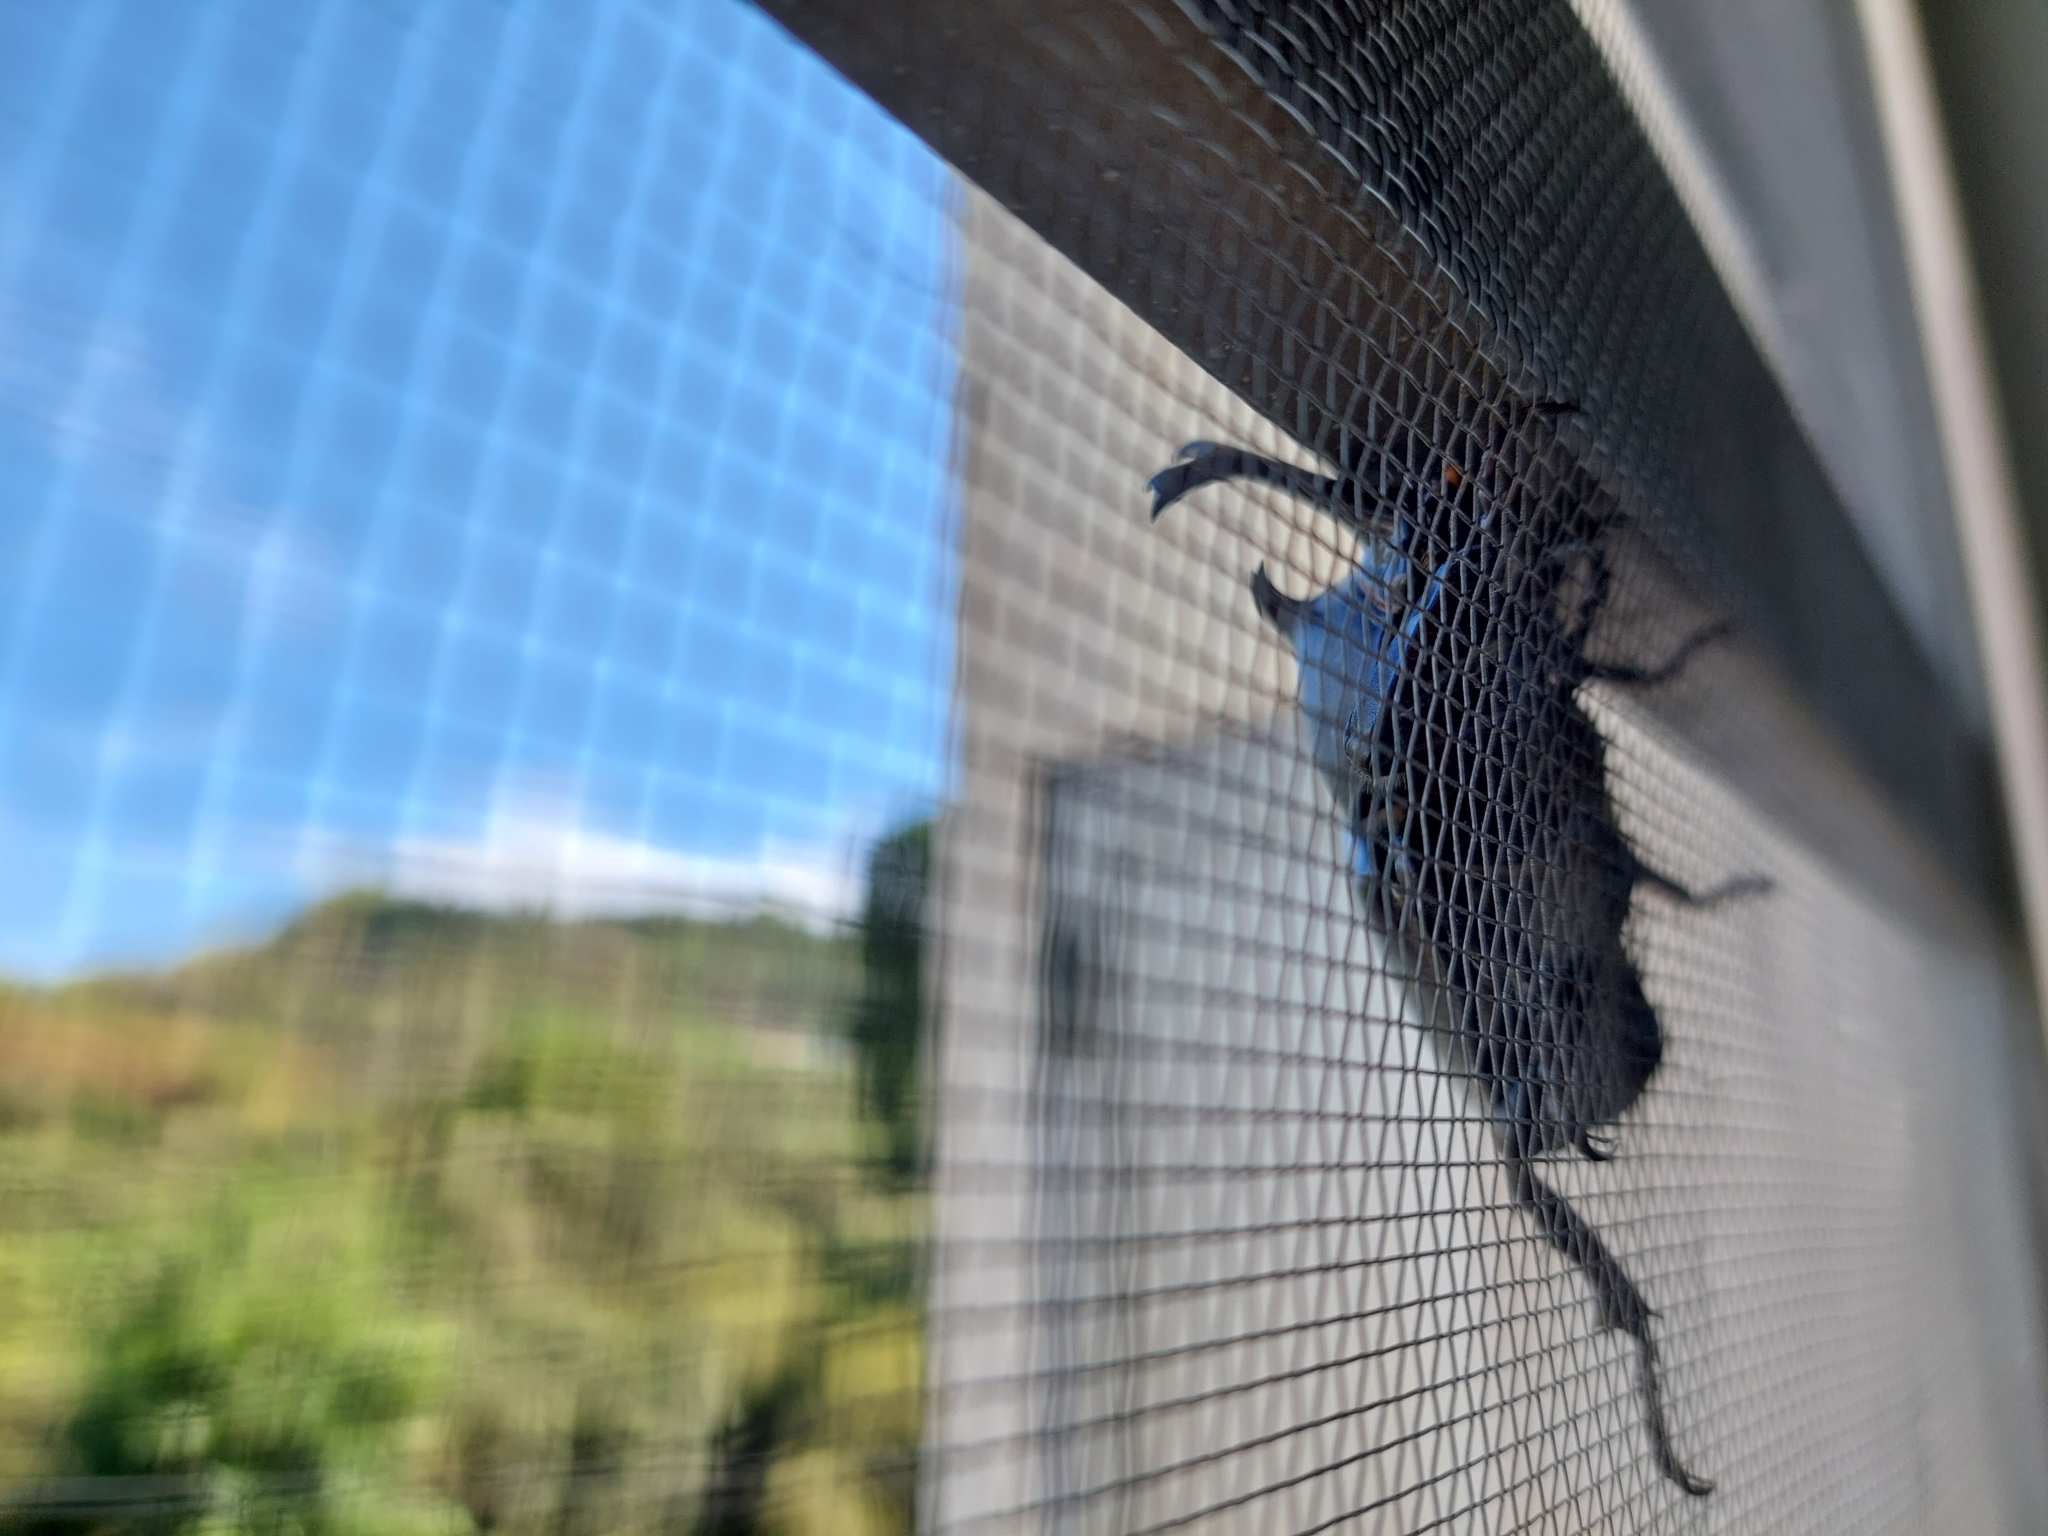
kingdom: Animalia
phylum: Arthropoda
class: Insecta
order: Coleoptera
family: Scarabaeidae
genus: Trypoxylus
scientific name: Trypoxylus dichotomus
